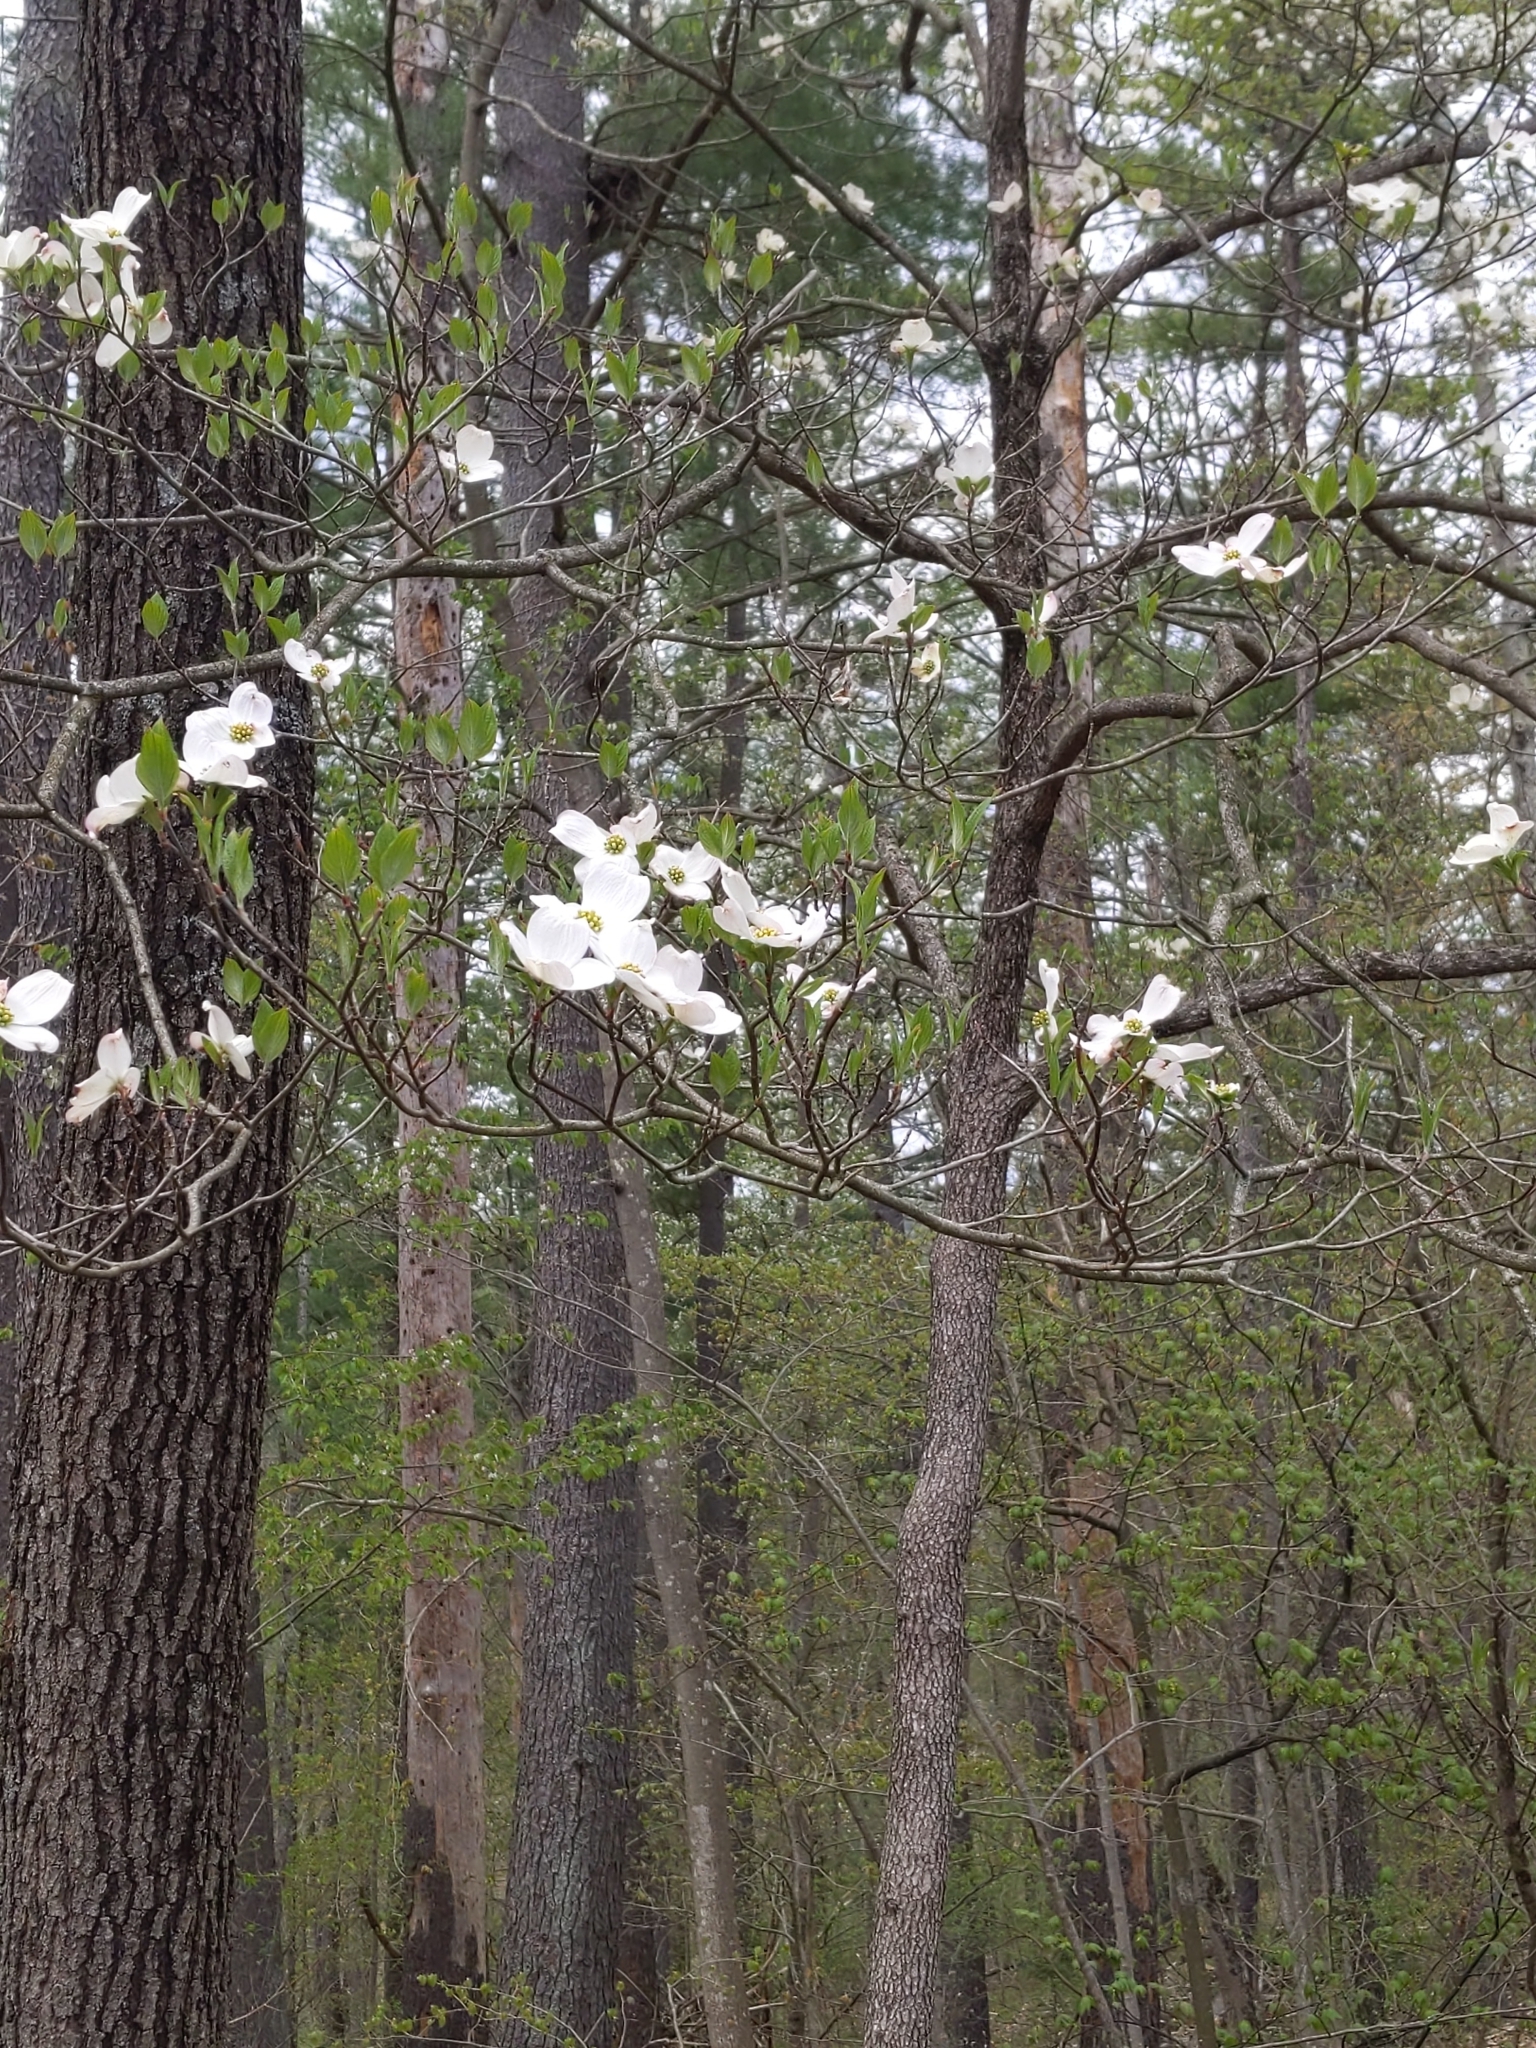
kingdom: Plantae
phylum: Tracheophyta
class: Magnoliopsida
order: Cornales
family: Cornaceae
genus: Cornus
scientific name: Cornus florida
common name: Flowering dogwood
